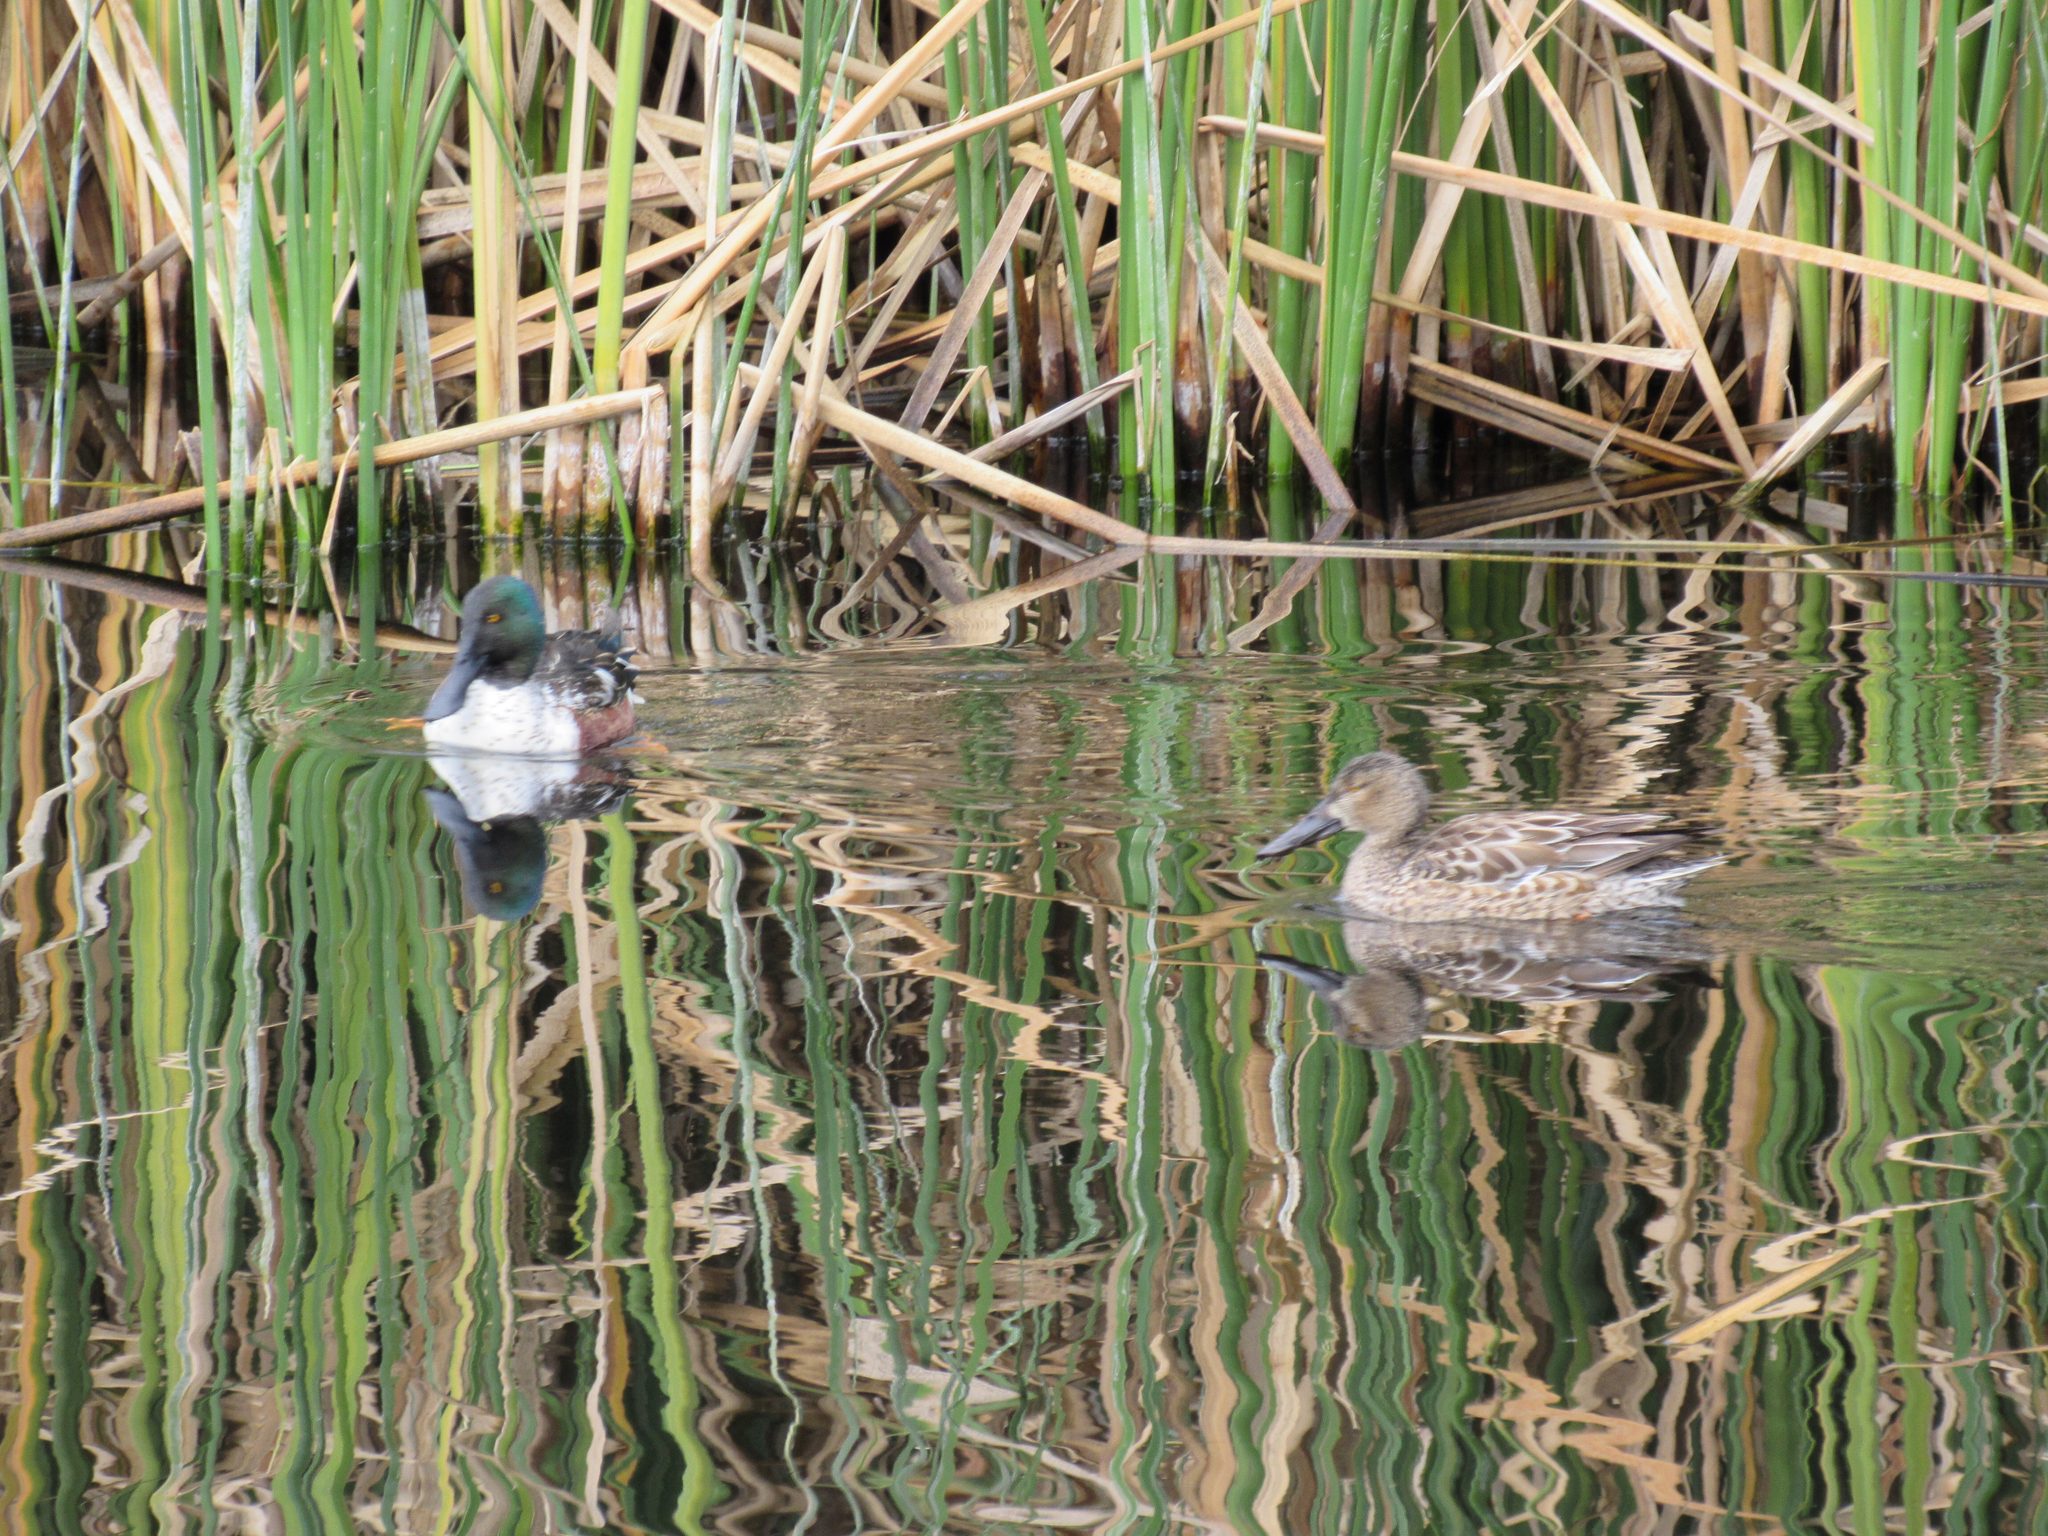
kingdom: Animalia
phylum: Chordata
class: Aves
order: Anseriformes
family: Anatidae
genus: Spatula
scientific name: Spatula clypeata
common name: Northern shoveler
